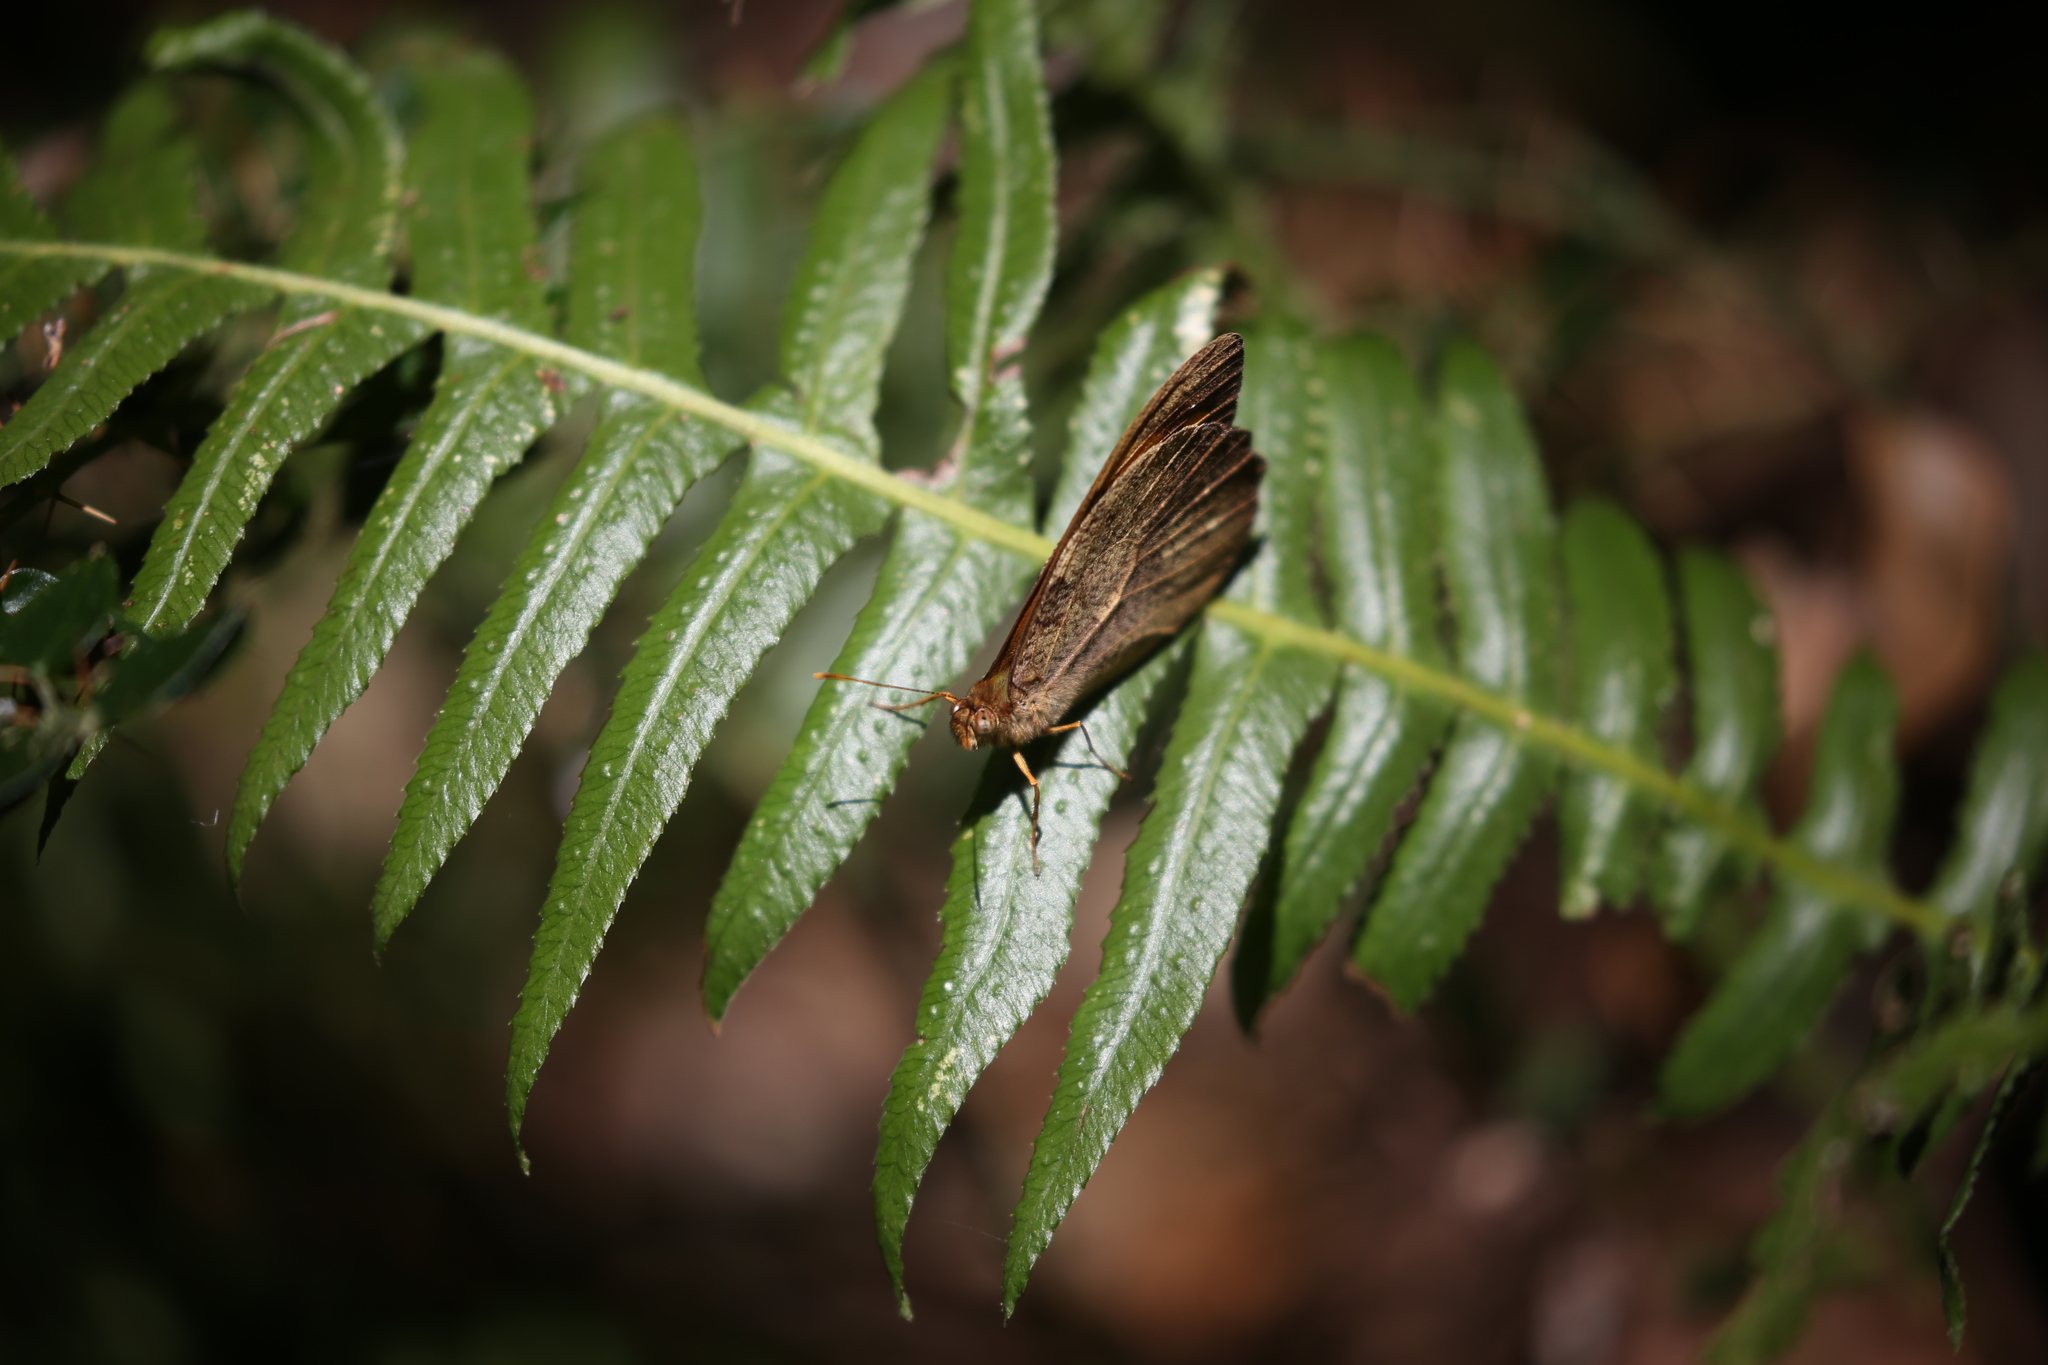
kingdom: Animalia
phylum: Arthropoda
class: Insecta
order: Lepidoptera
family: Nymphalidae
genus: Heteronympha
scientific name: Heteronympha mirifica
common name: Wonder brown
